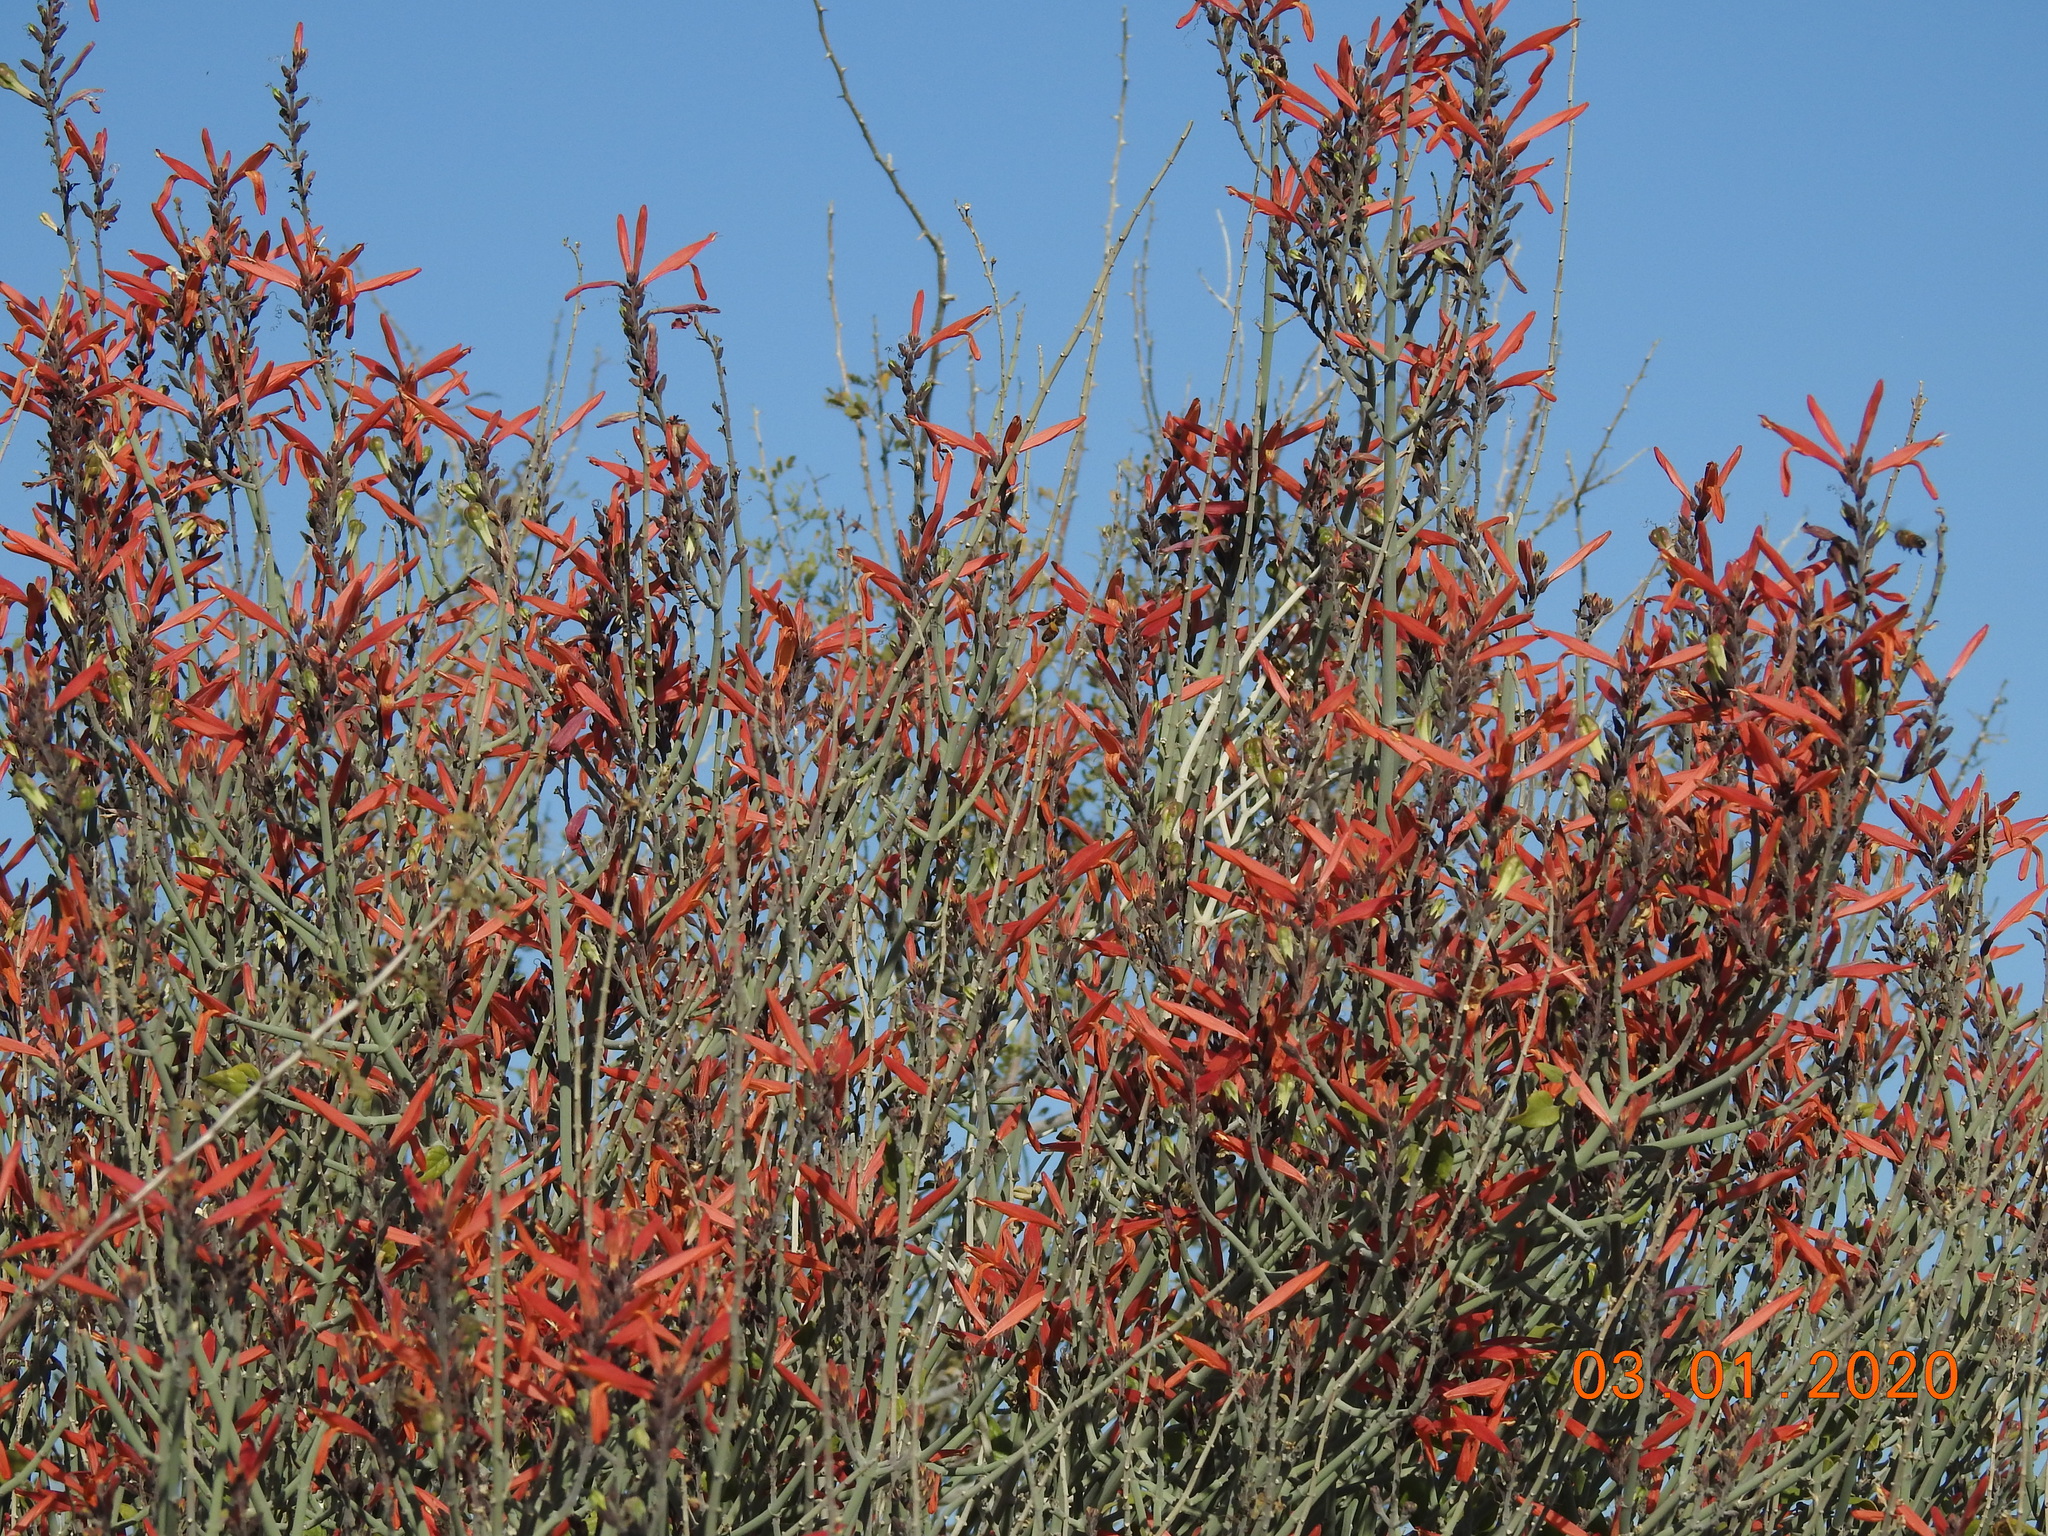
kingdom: Plantae
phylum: Tracheophyta
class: Magnoliopsida
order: Lamiales
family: Acanthaceae
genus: Justicia
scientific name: Justicia californica
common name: Chuparosa-honeysuckle
